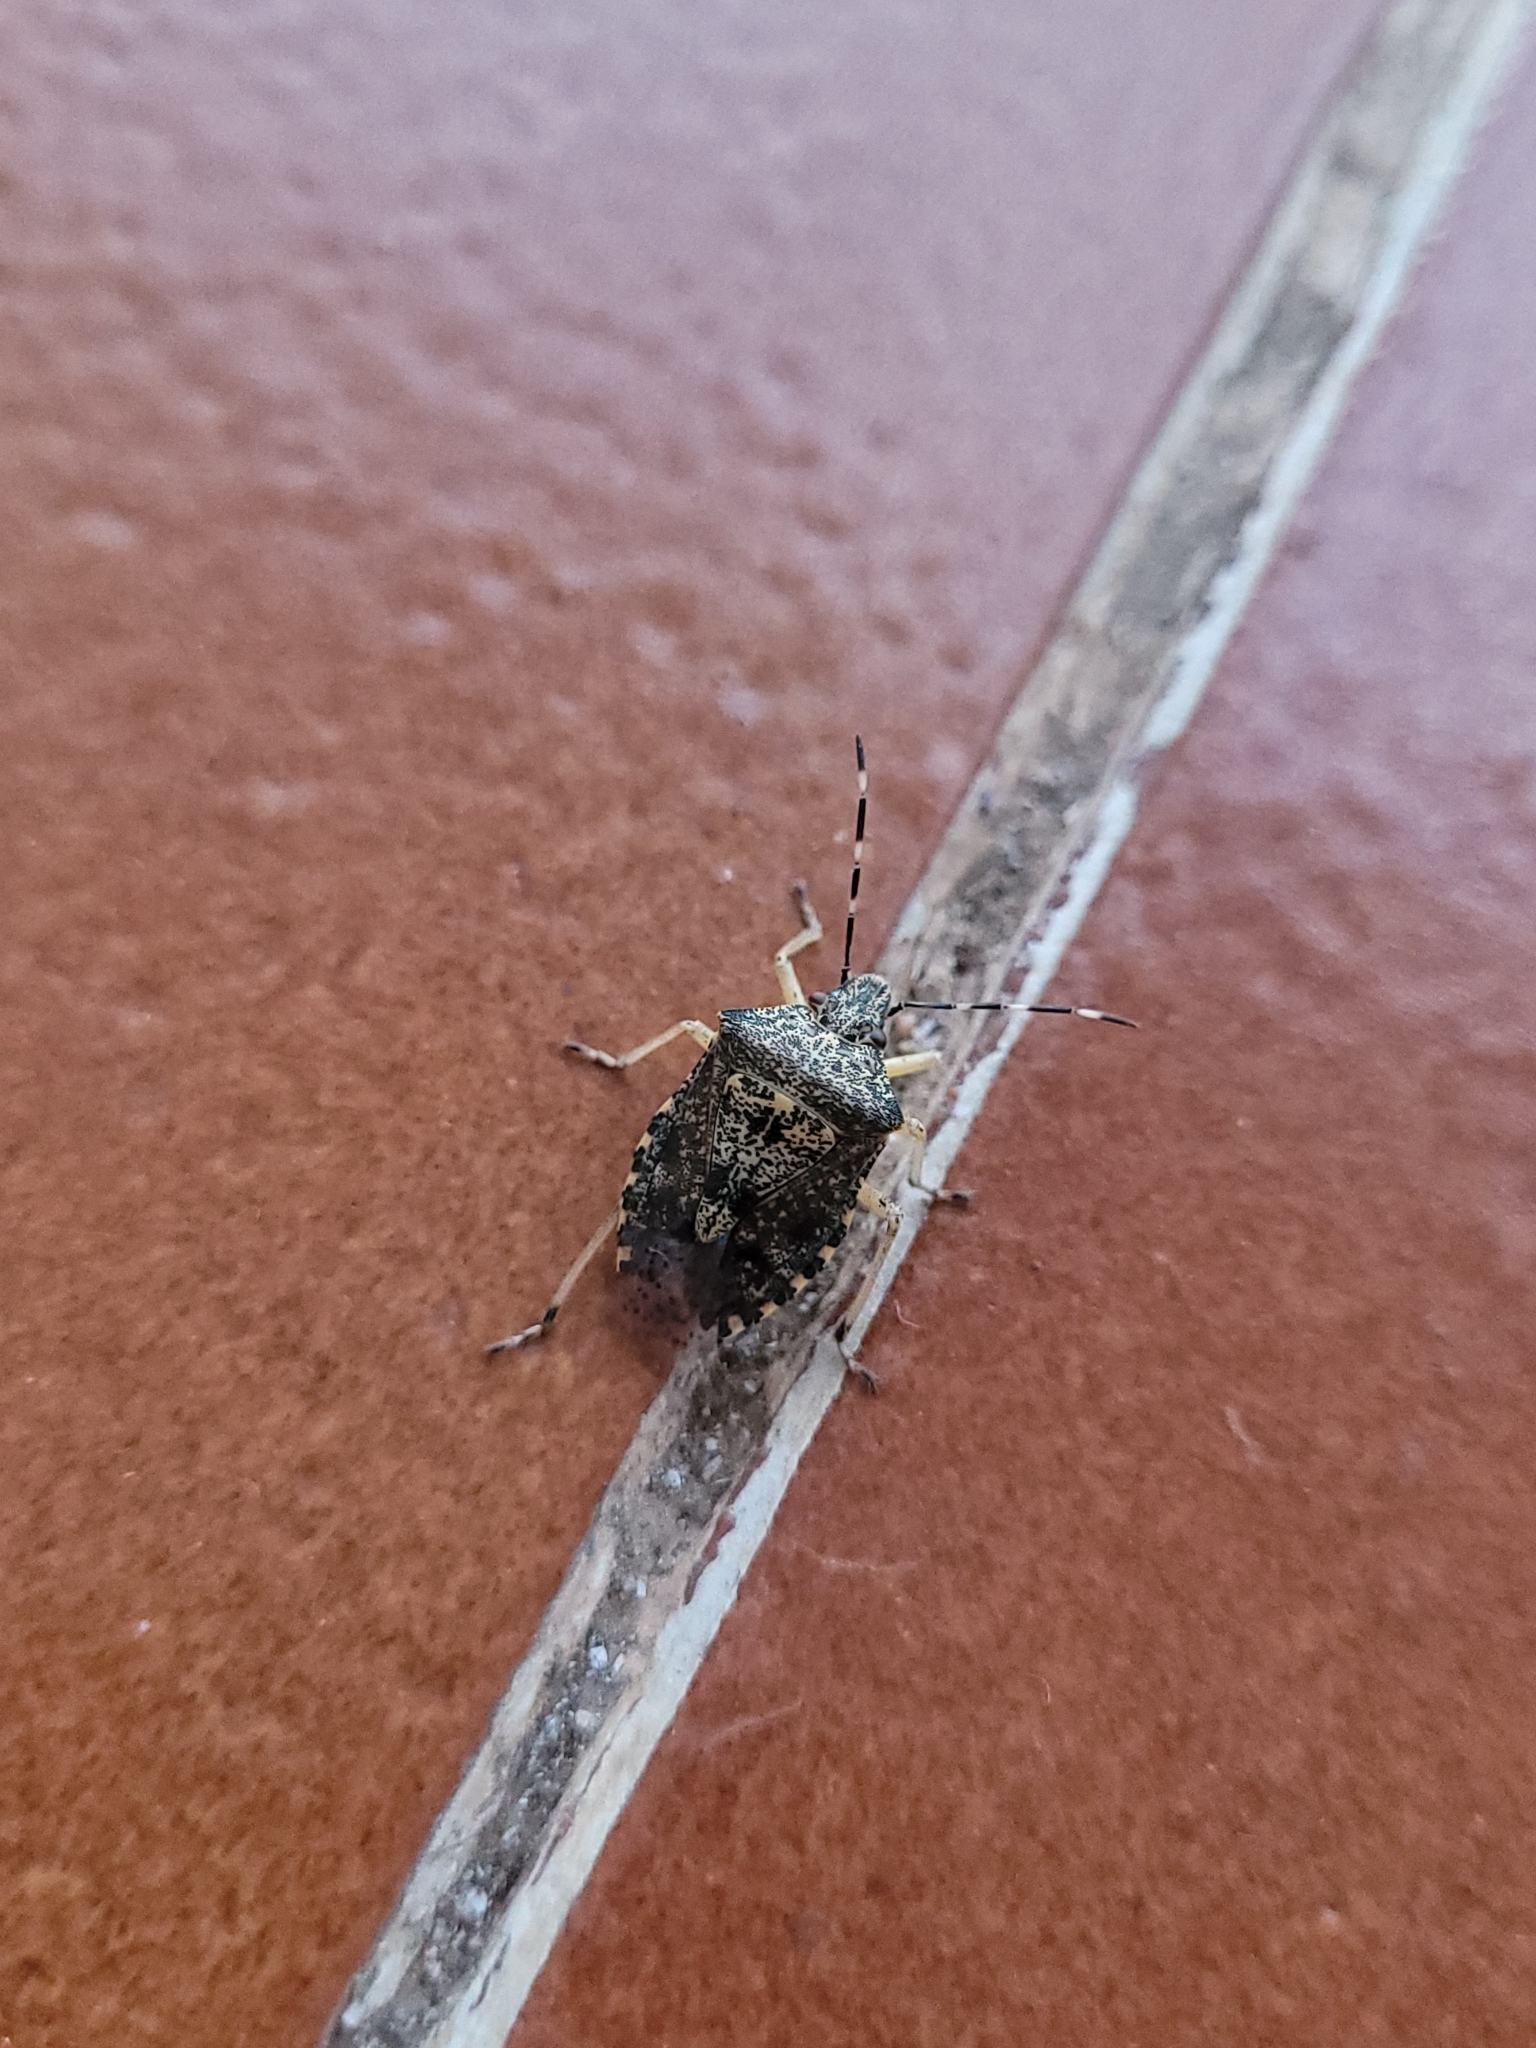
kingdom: Animalia
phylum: Arthropoda
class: Insecta
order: Hemiptera
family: Pentatomidae
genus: Rhaphigaster
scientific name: Rhaphigaster nebulosa
